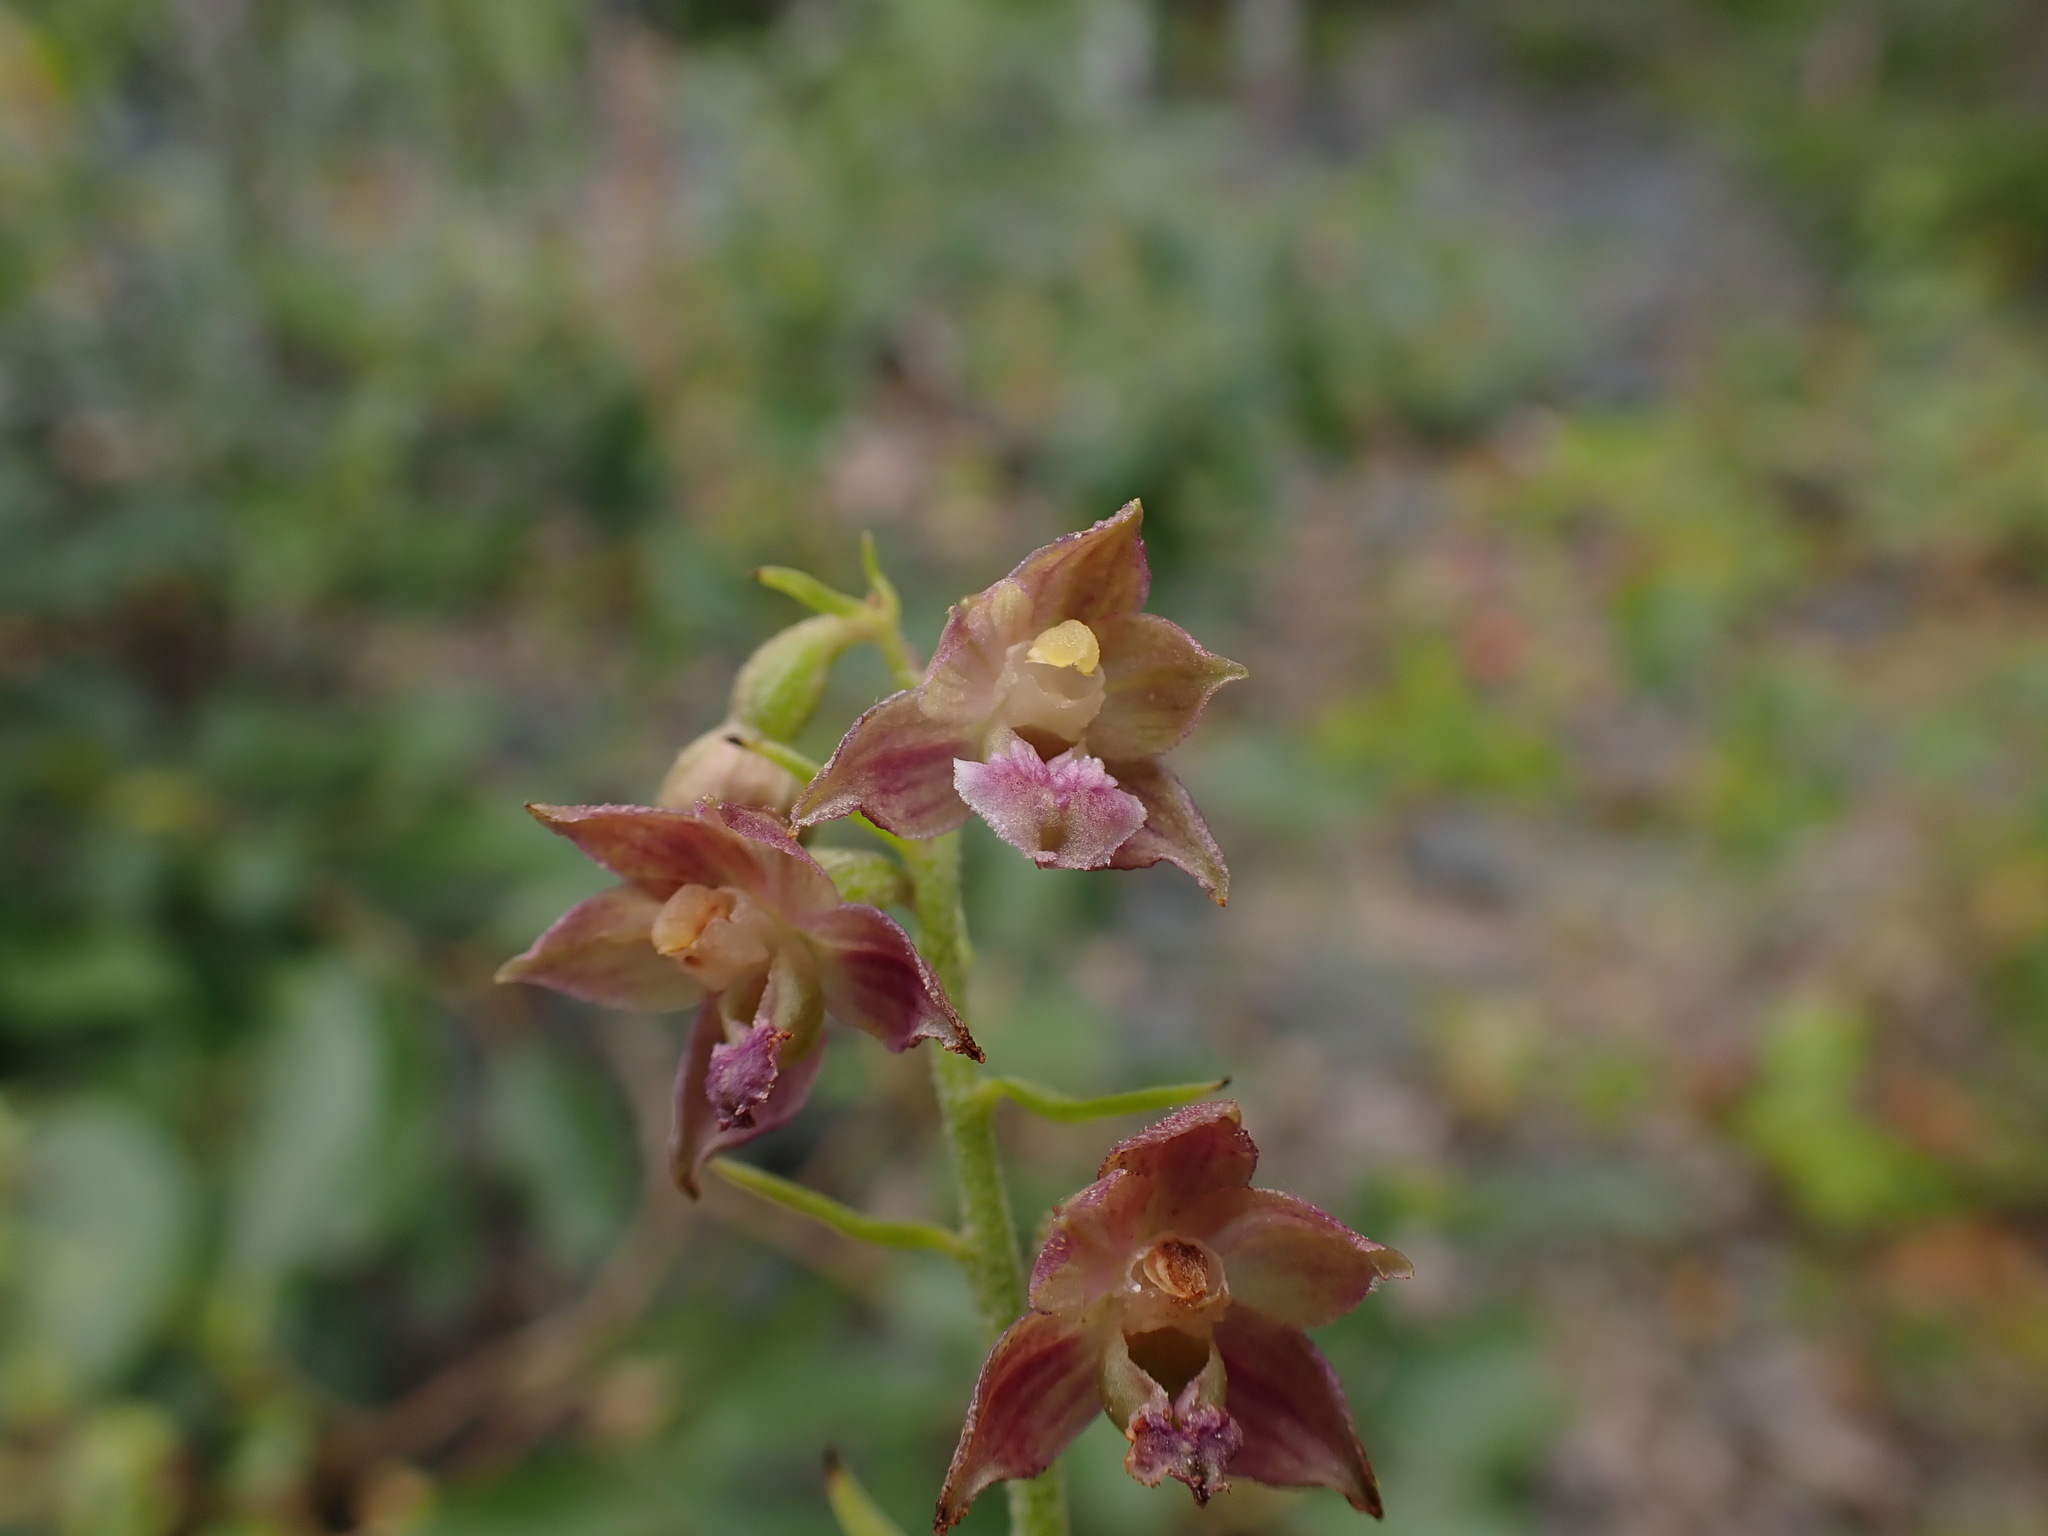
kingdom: Plantae
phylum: Tracheophyta
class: Liliopsida
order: Asparagales
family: Orchidaceae
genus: Epipactis
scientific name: Epipactis atrorubens
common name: Dark-red helleborine
